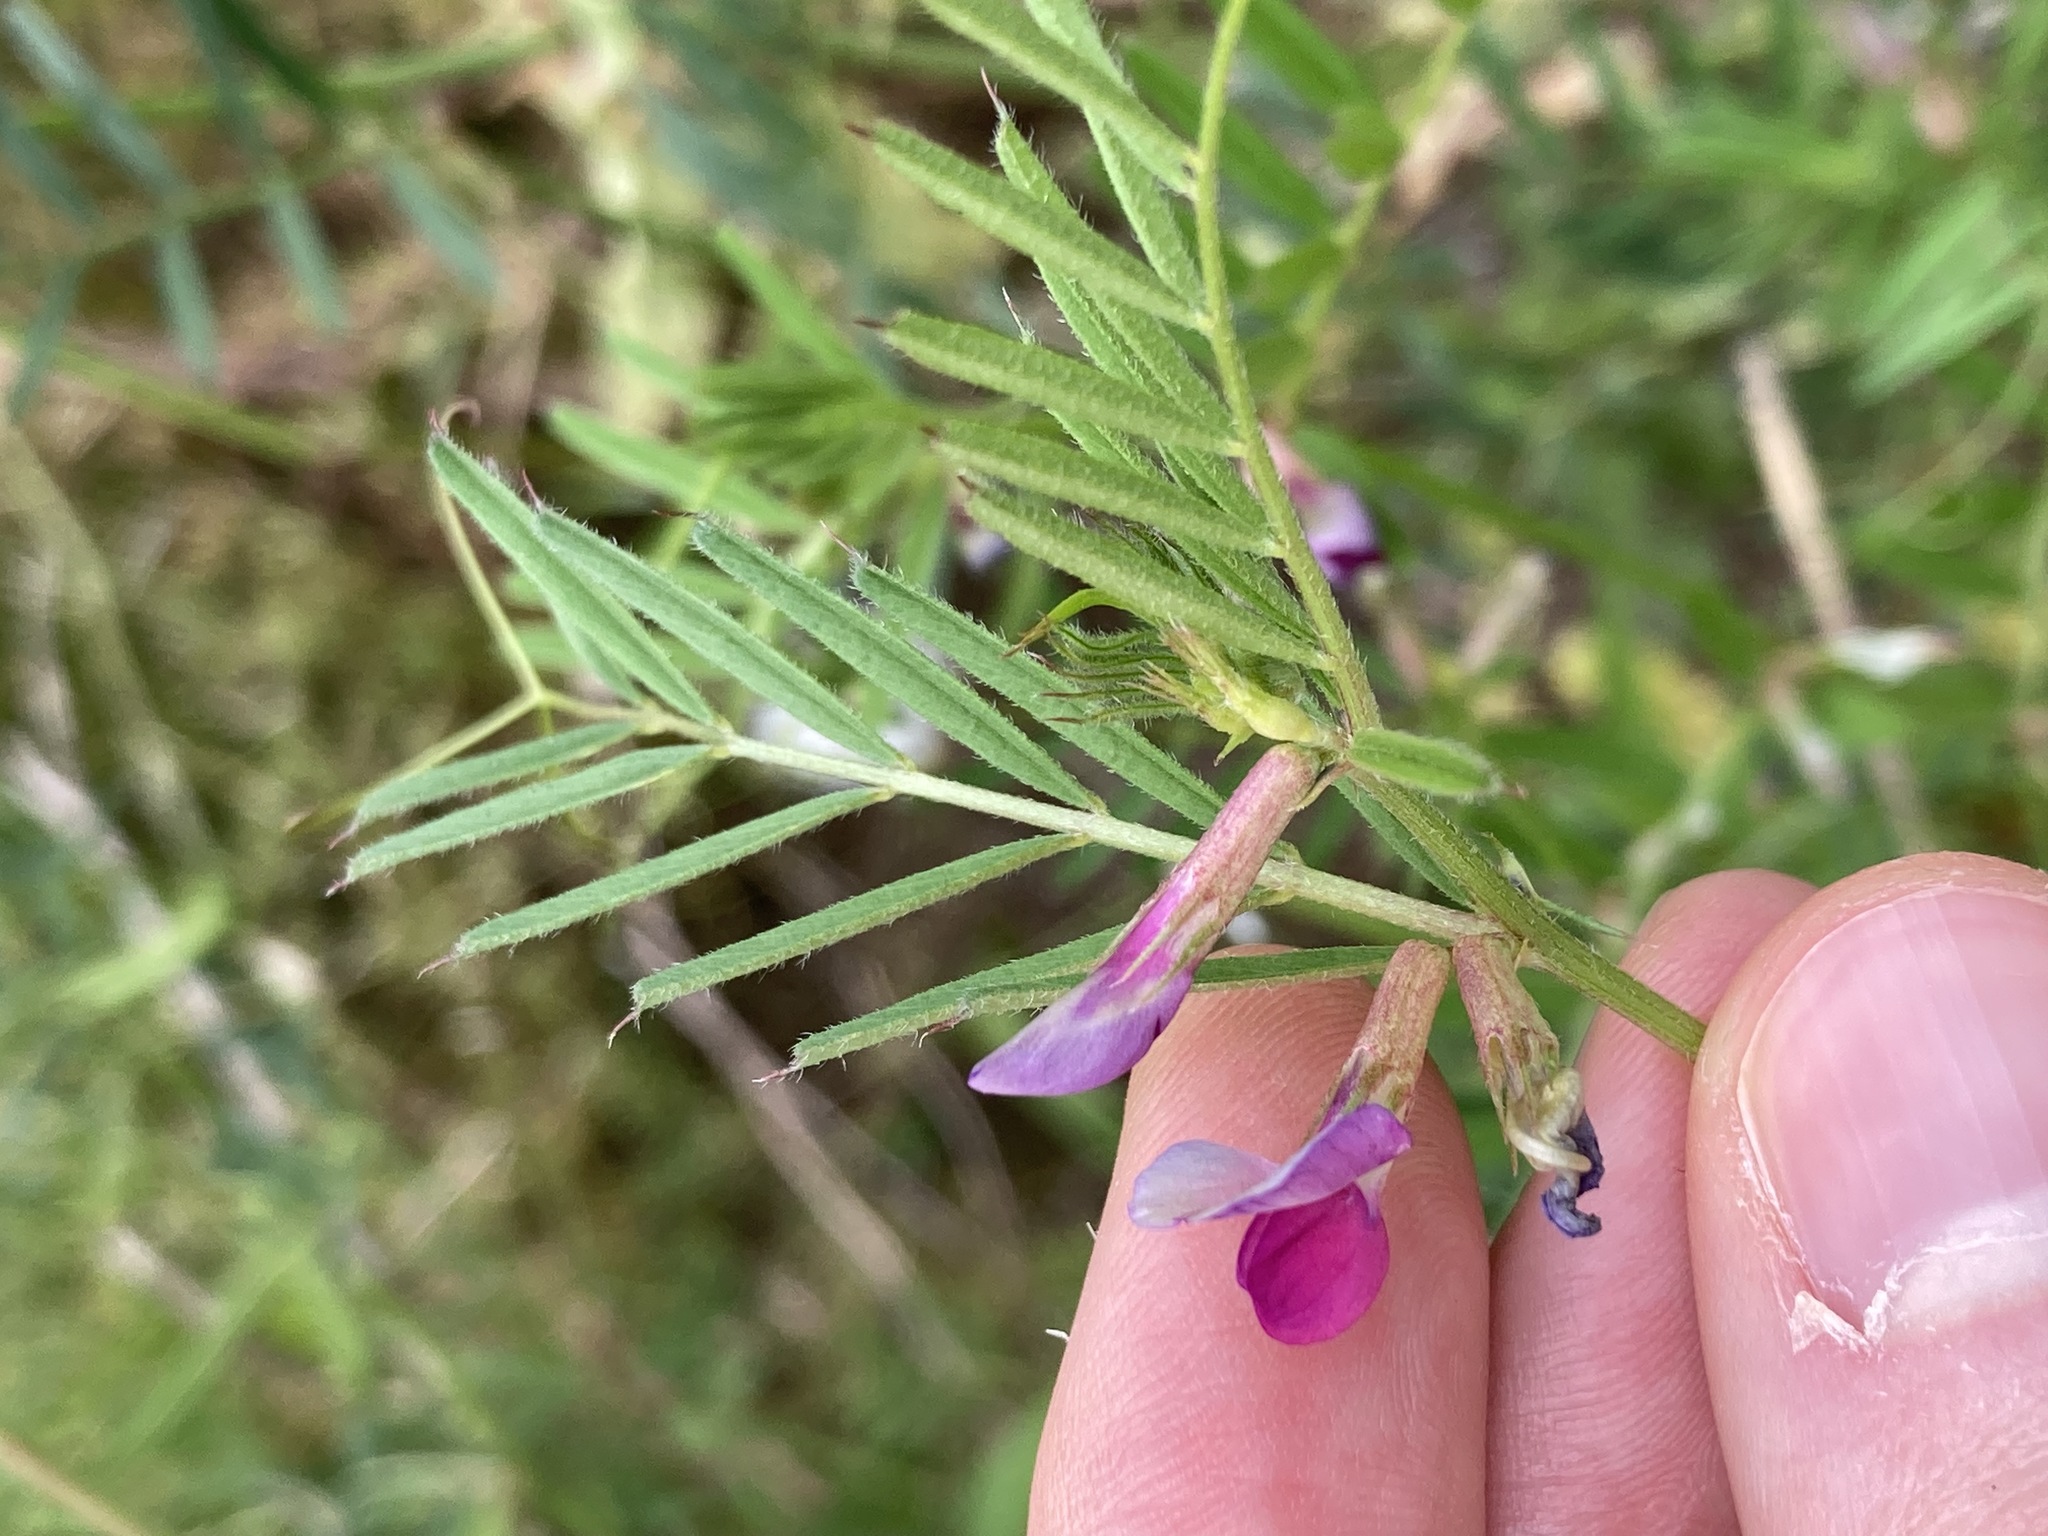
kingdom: Plantae
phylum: Tracheophyta
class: Magnoliopsida
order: Fabales
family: Fabaceae
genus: Vicia
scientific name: Vicia sativa
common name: Garden vetch
